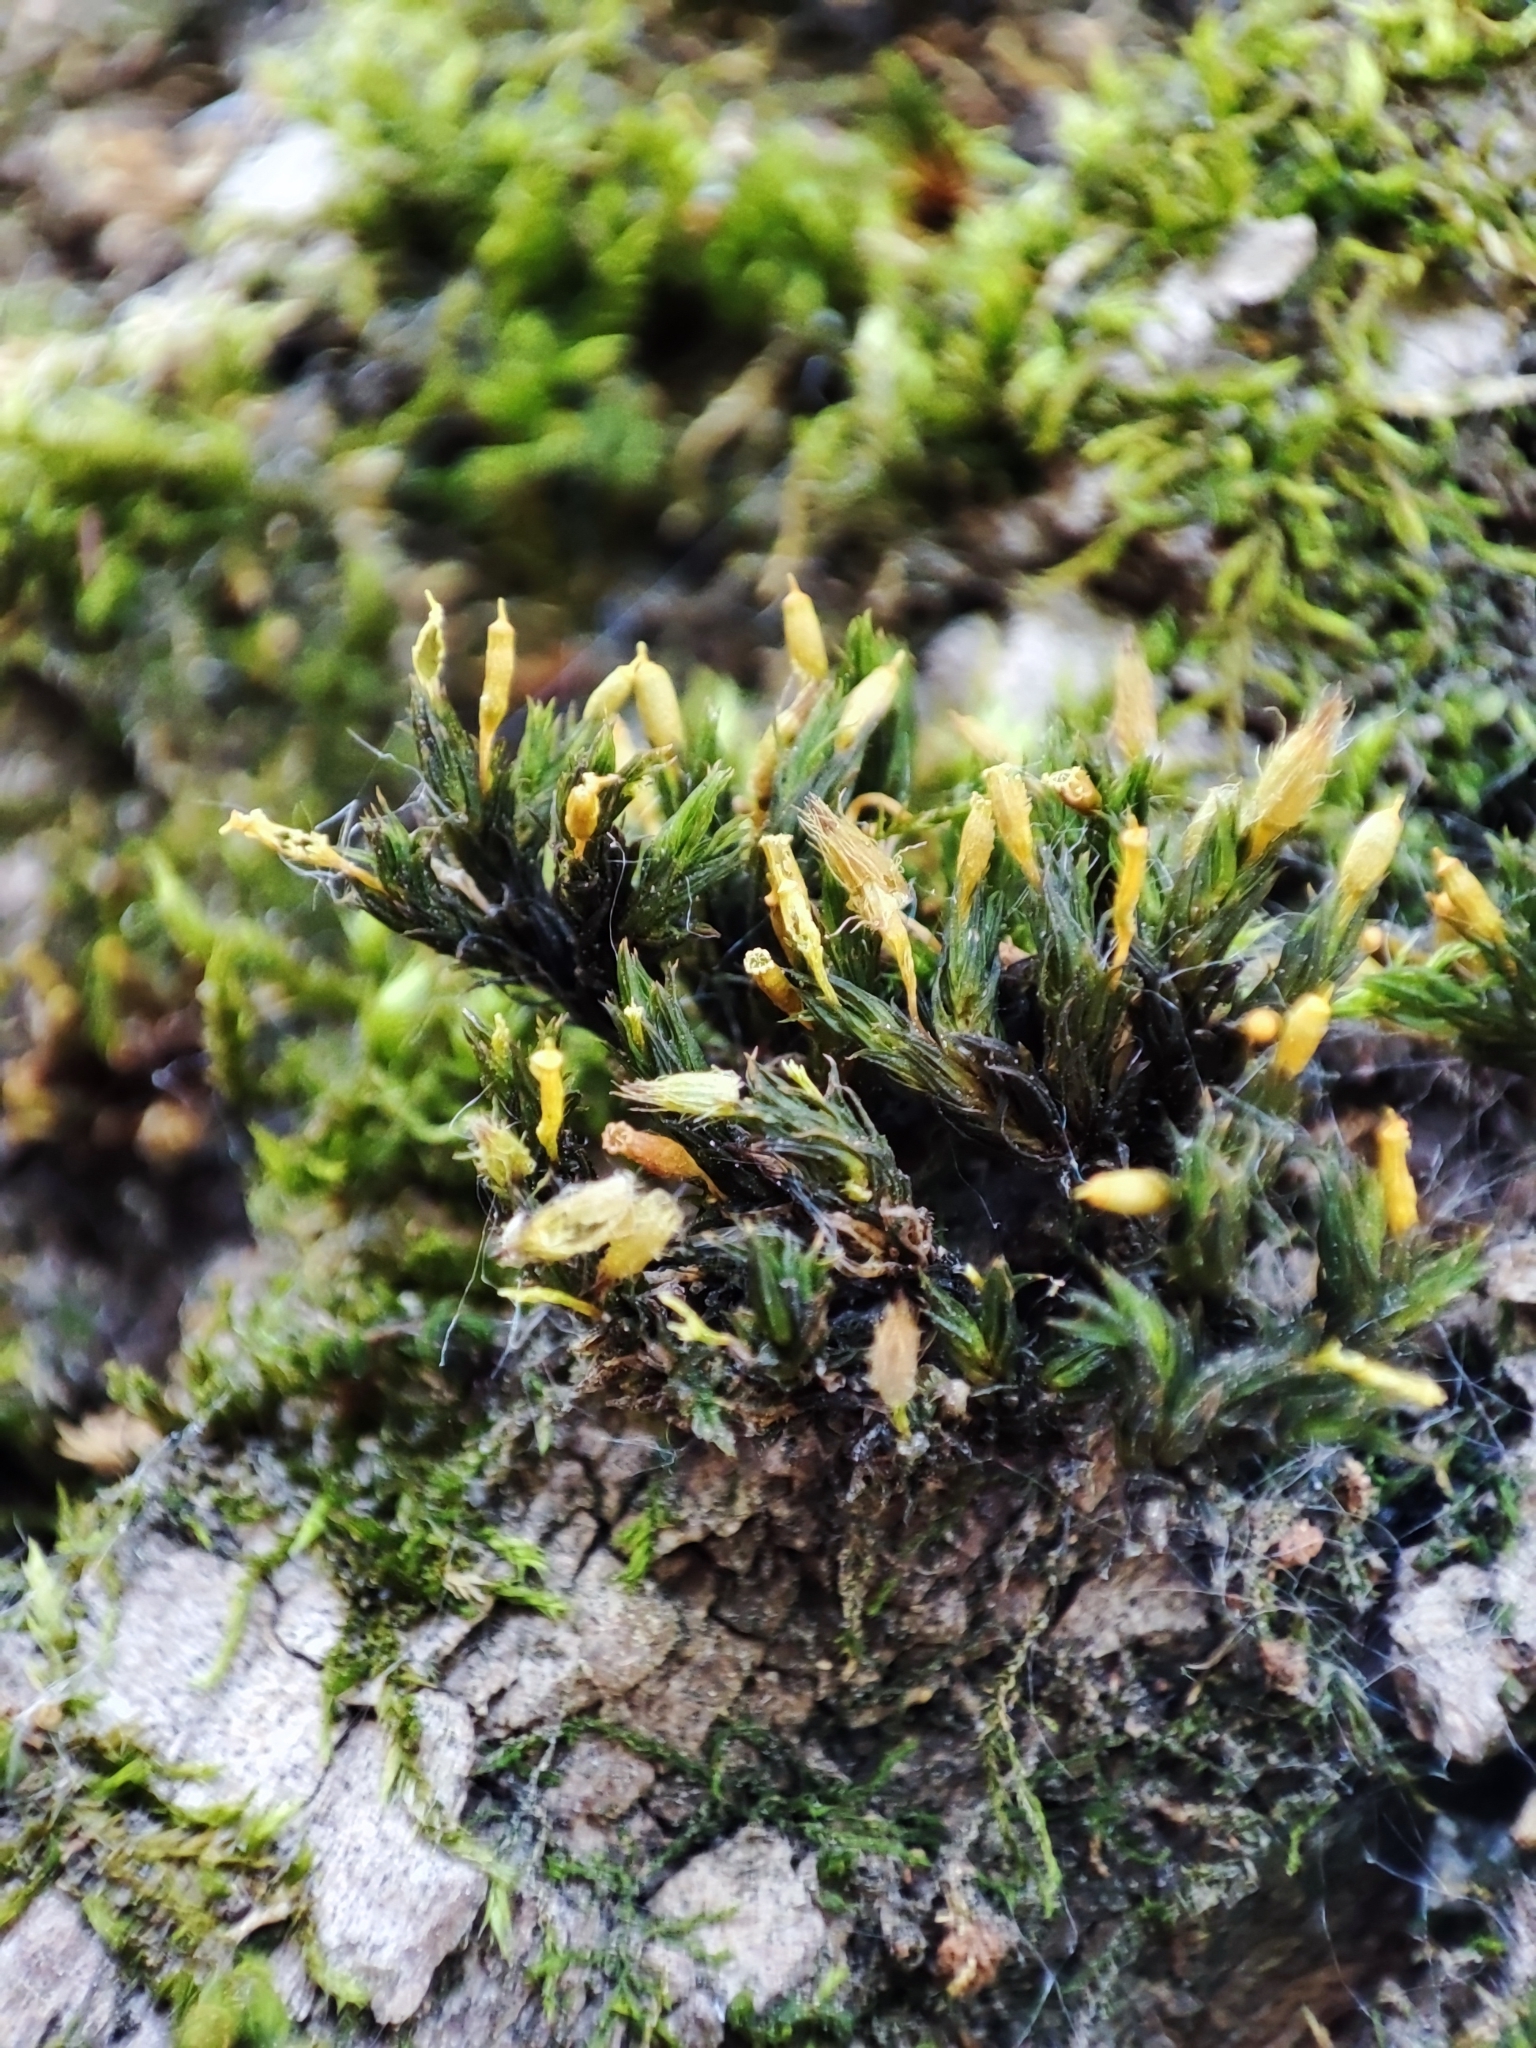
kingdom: Plantae
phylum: Bryophyta
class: Bryopsida
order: Orthotrichales
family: Orthotrichaceae
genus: Lewinskya
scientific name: Lewinskya speciosa
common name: Showy bristle moss
